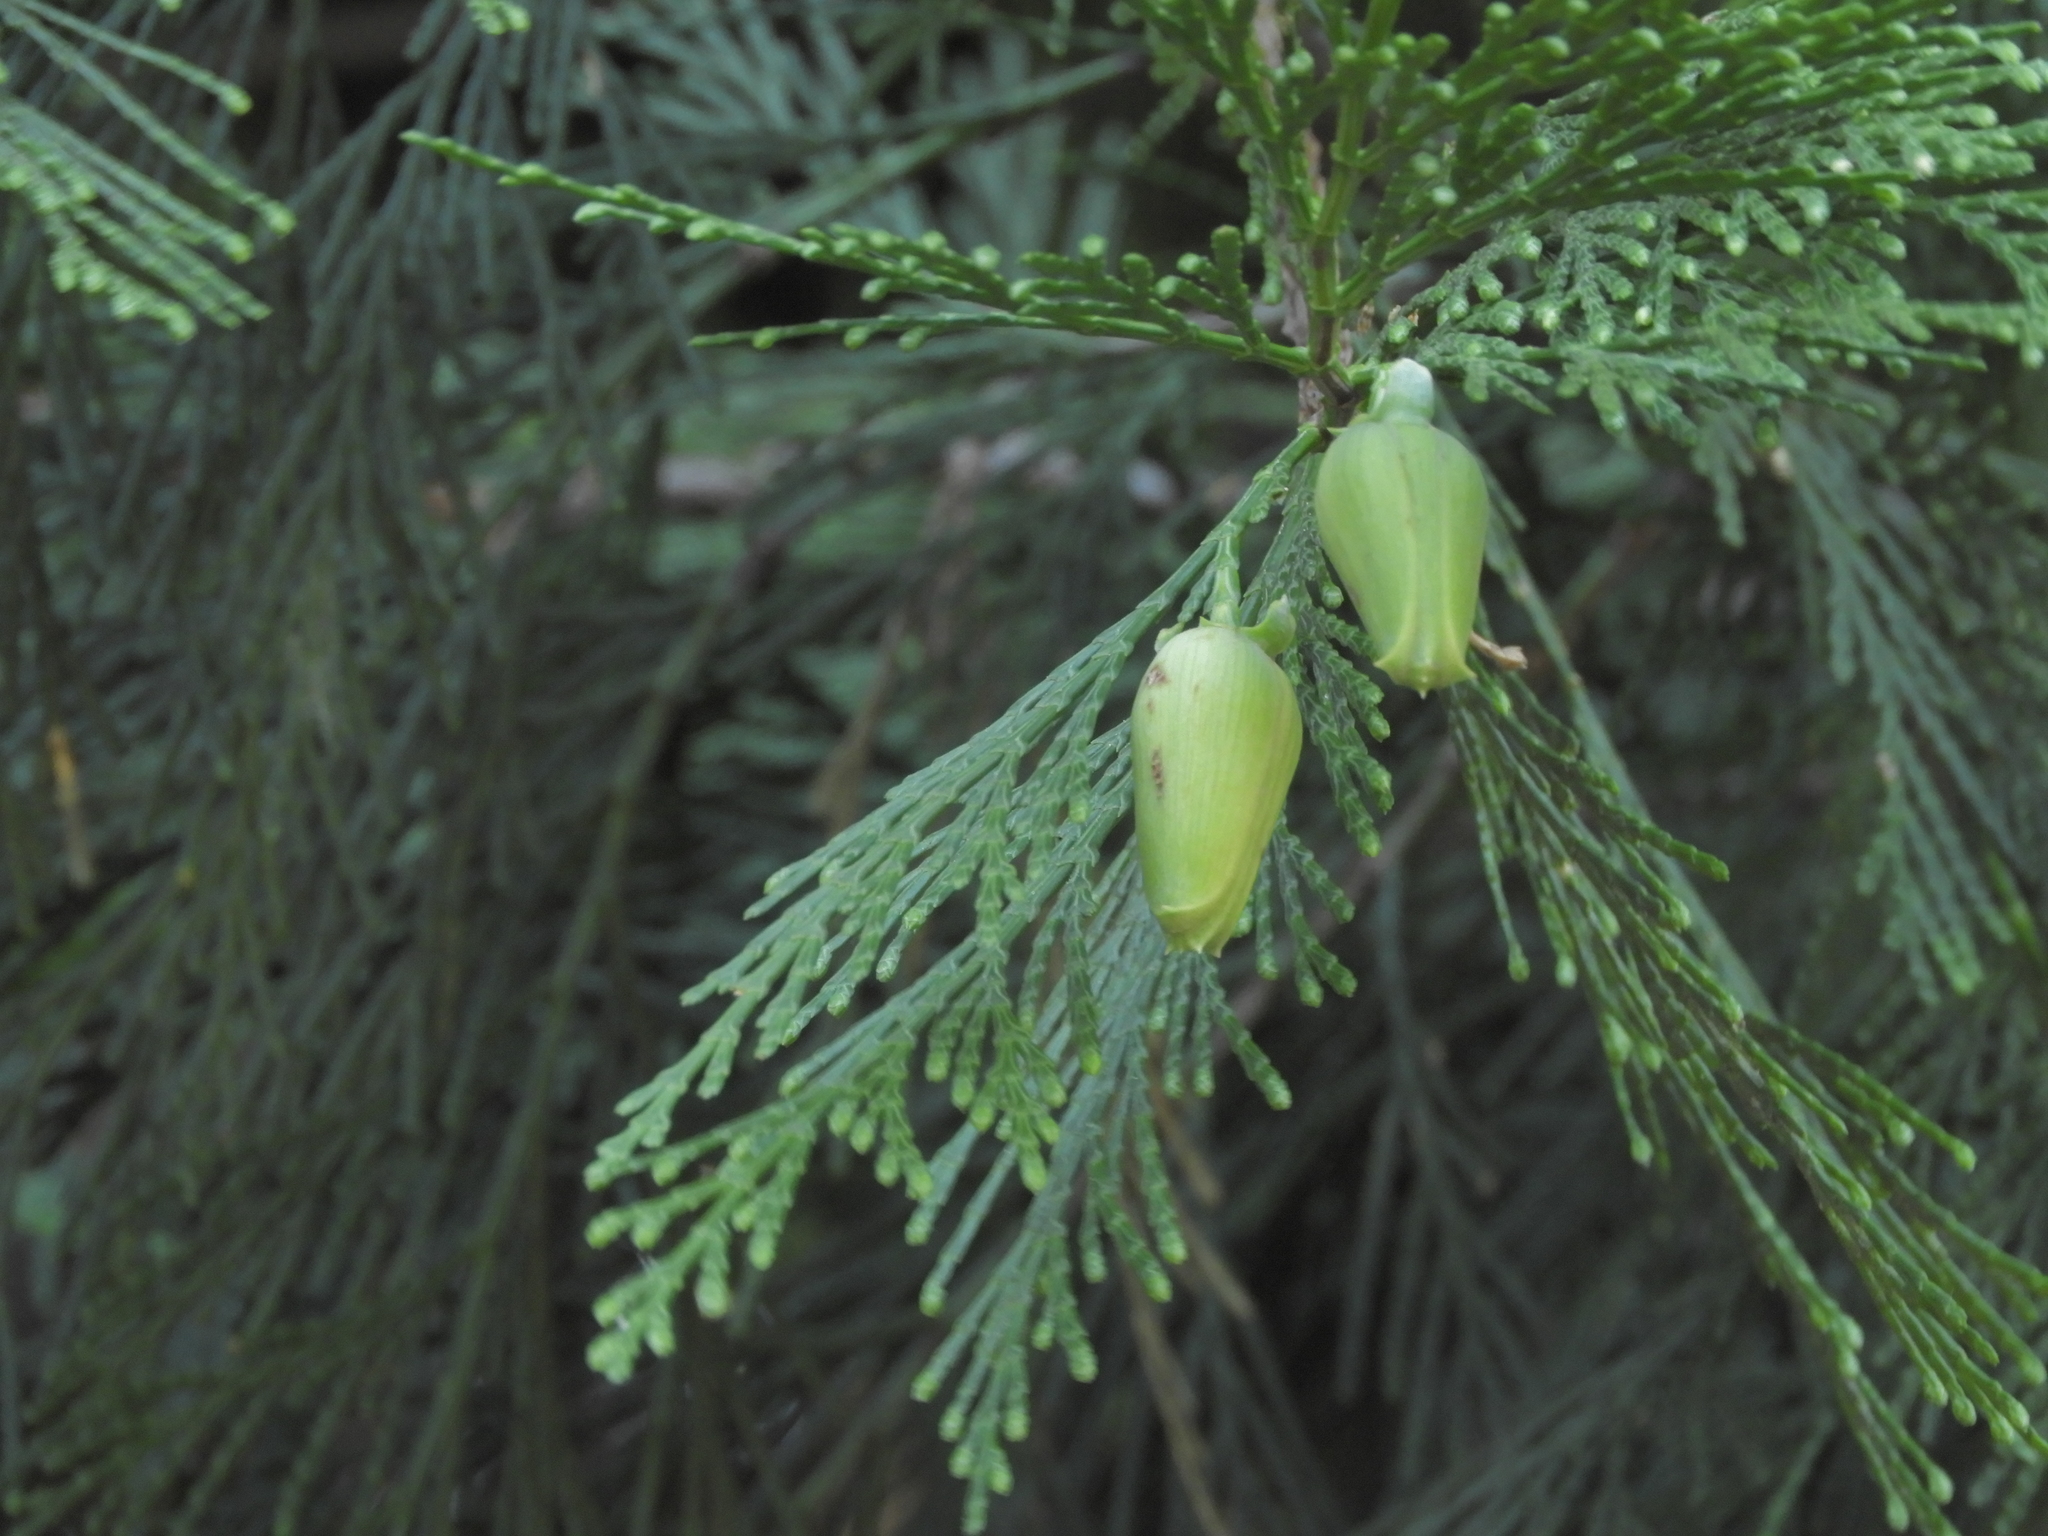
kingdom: Plantae
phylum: Tracheophyta
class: Pinopsida
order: Pinales
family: Cupressaceae
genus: Calocedrus
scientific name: Calocedrus decurrens
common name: Californian incense-cedar
